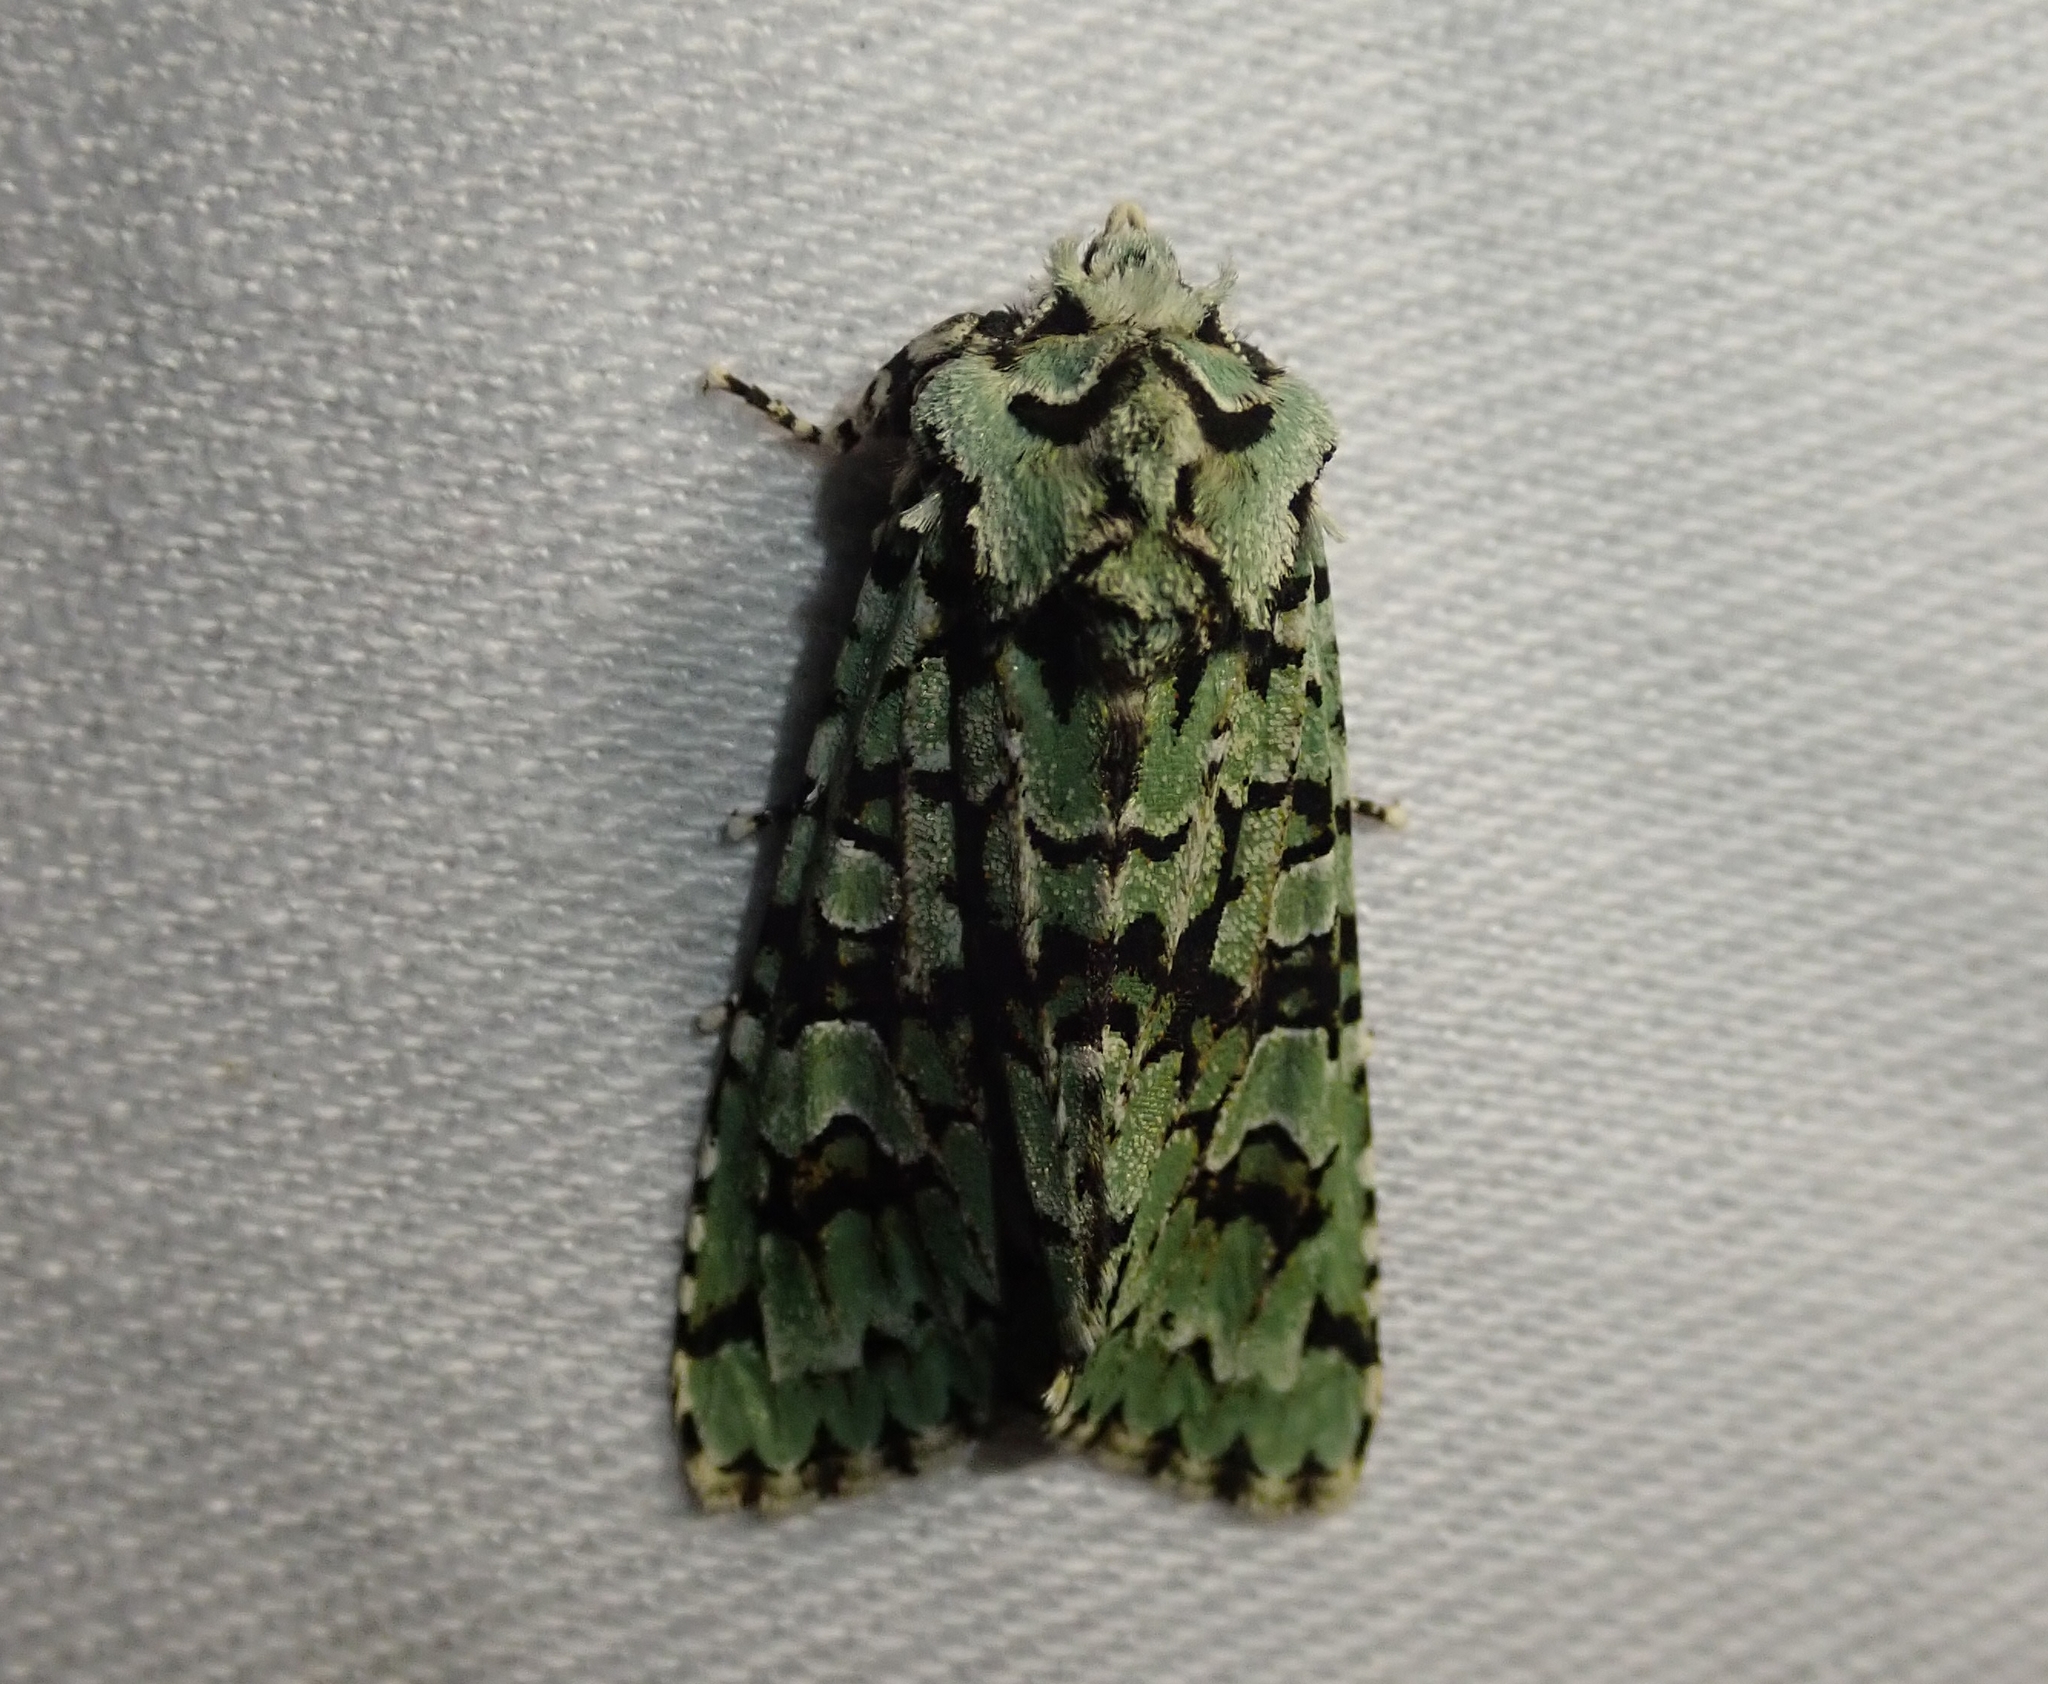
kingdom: Animalia
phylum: Arthropoda
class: Insecta
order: Lepidoptera
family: Noctuidae
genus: Griposia
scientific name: Griposia aprilina
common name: Merveille du jour
